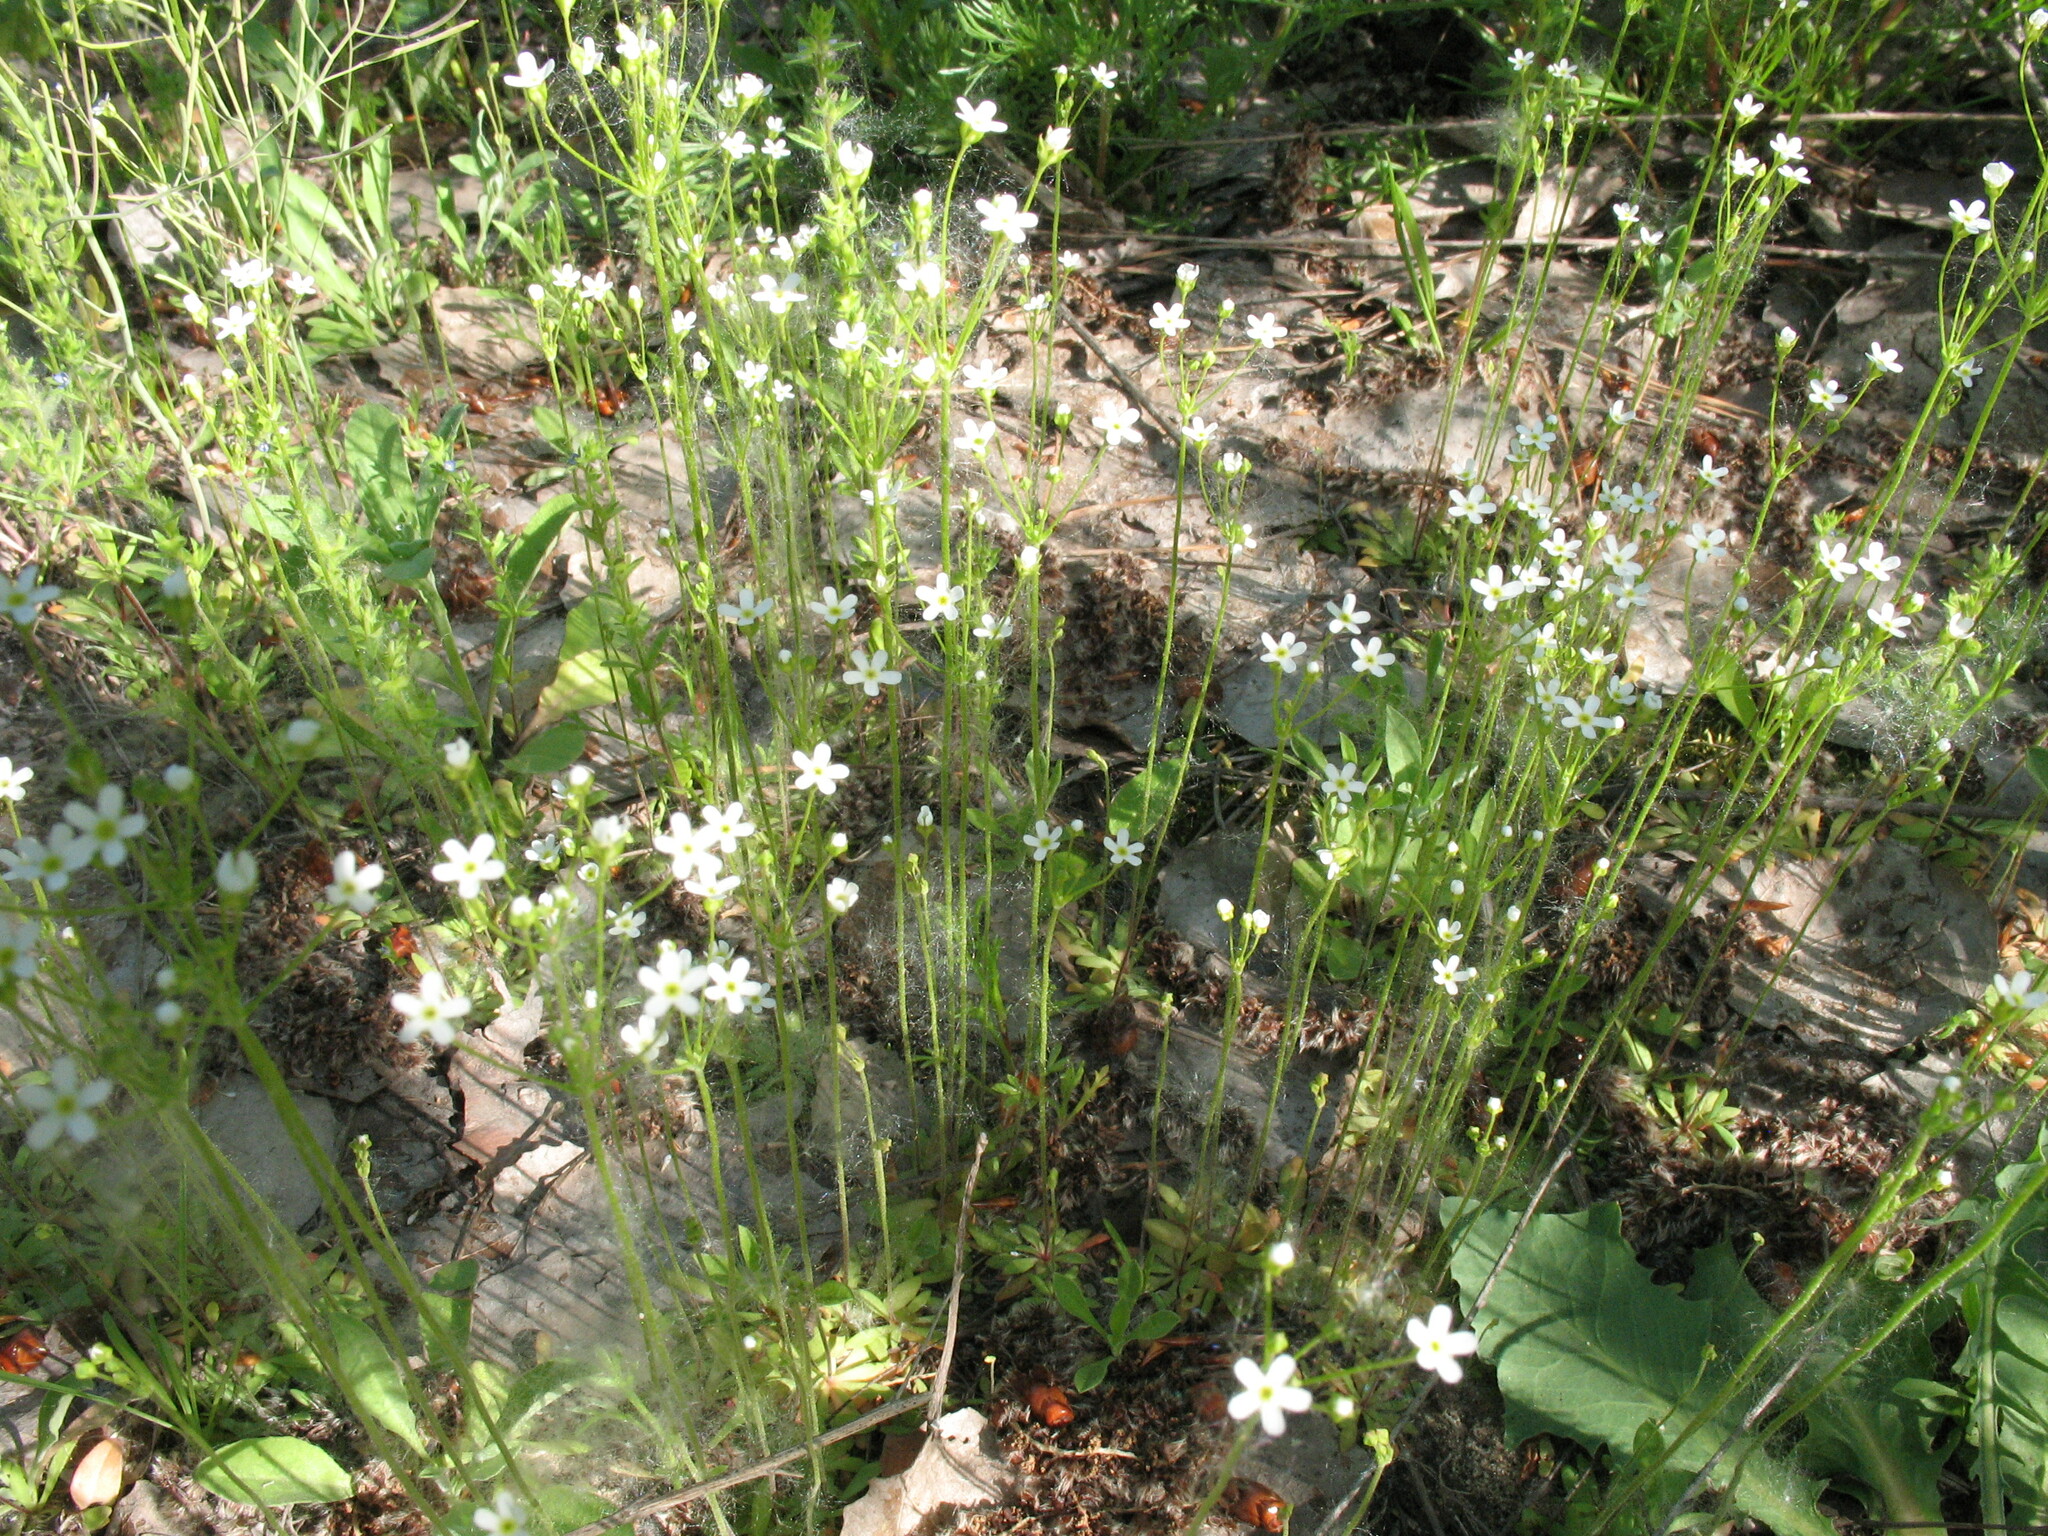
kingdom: Plantae
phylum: Tracheophyta
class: Magnoliopsida
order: Ericales
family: Primulaceae
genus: Androsace
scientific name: Androsace septentrionalis
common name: Hairy northern fairy-candelabra
